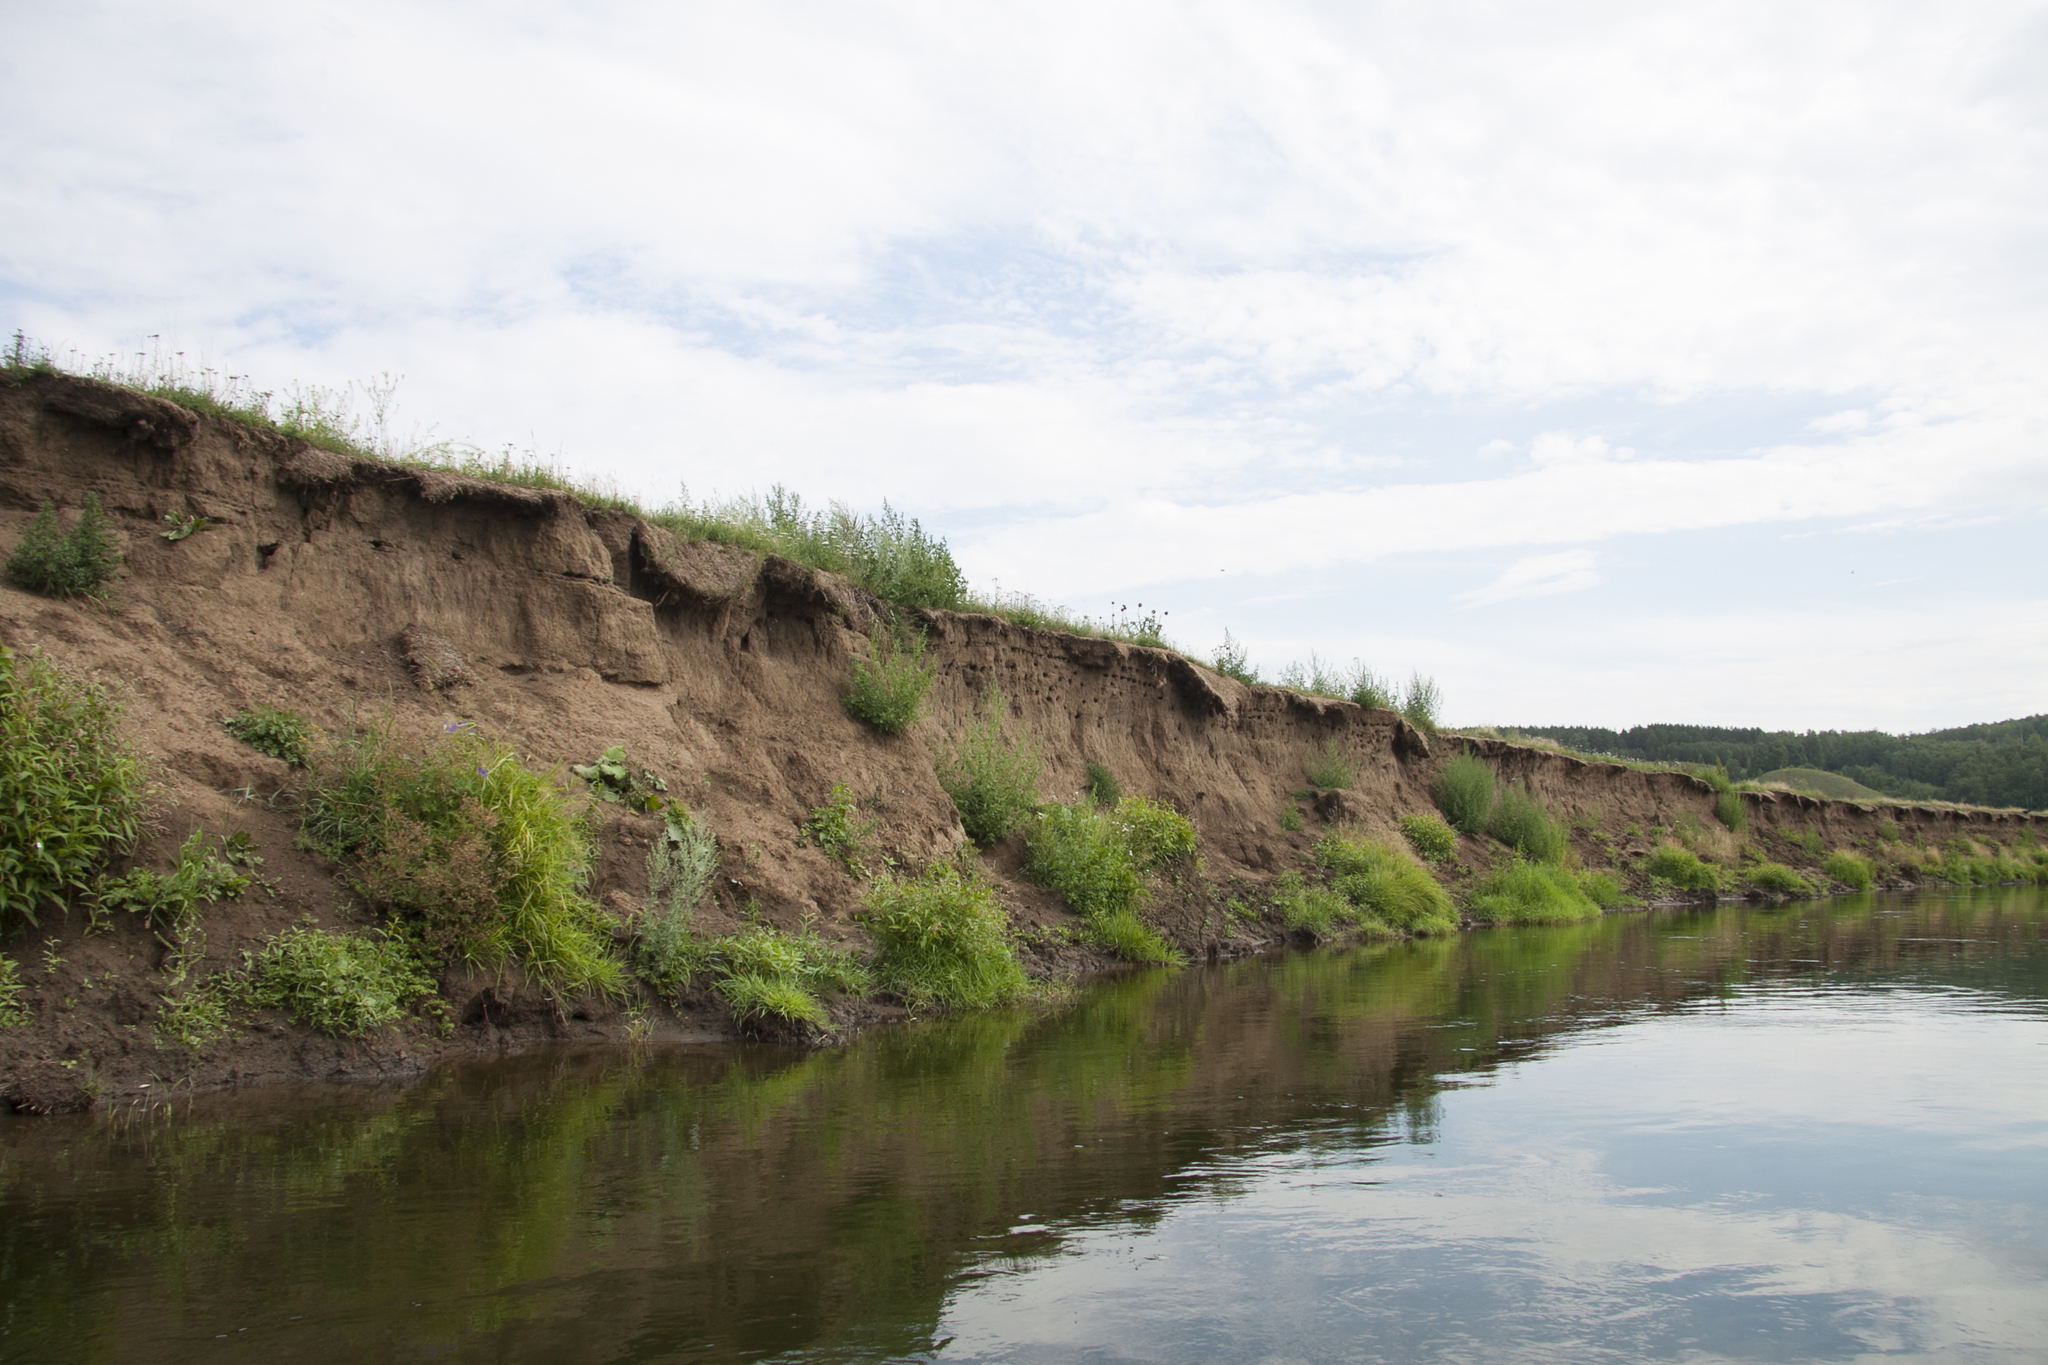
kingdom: Animalia
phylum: Chordata
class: Aves
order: Passeriformes
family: Hirundinidae
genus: Riparia
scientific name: Riparia riparia
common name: Sand martin
